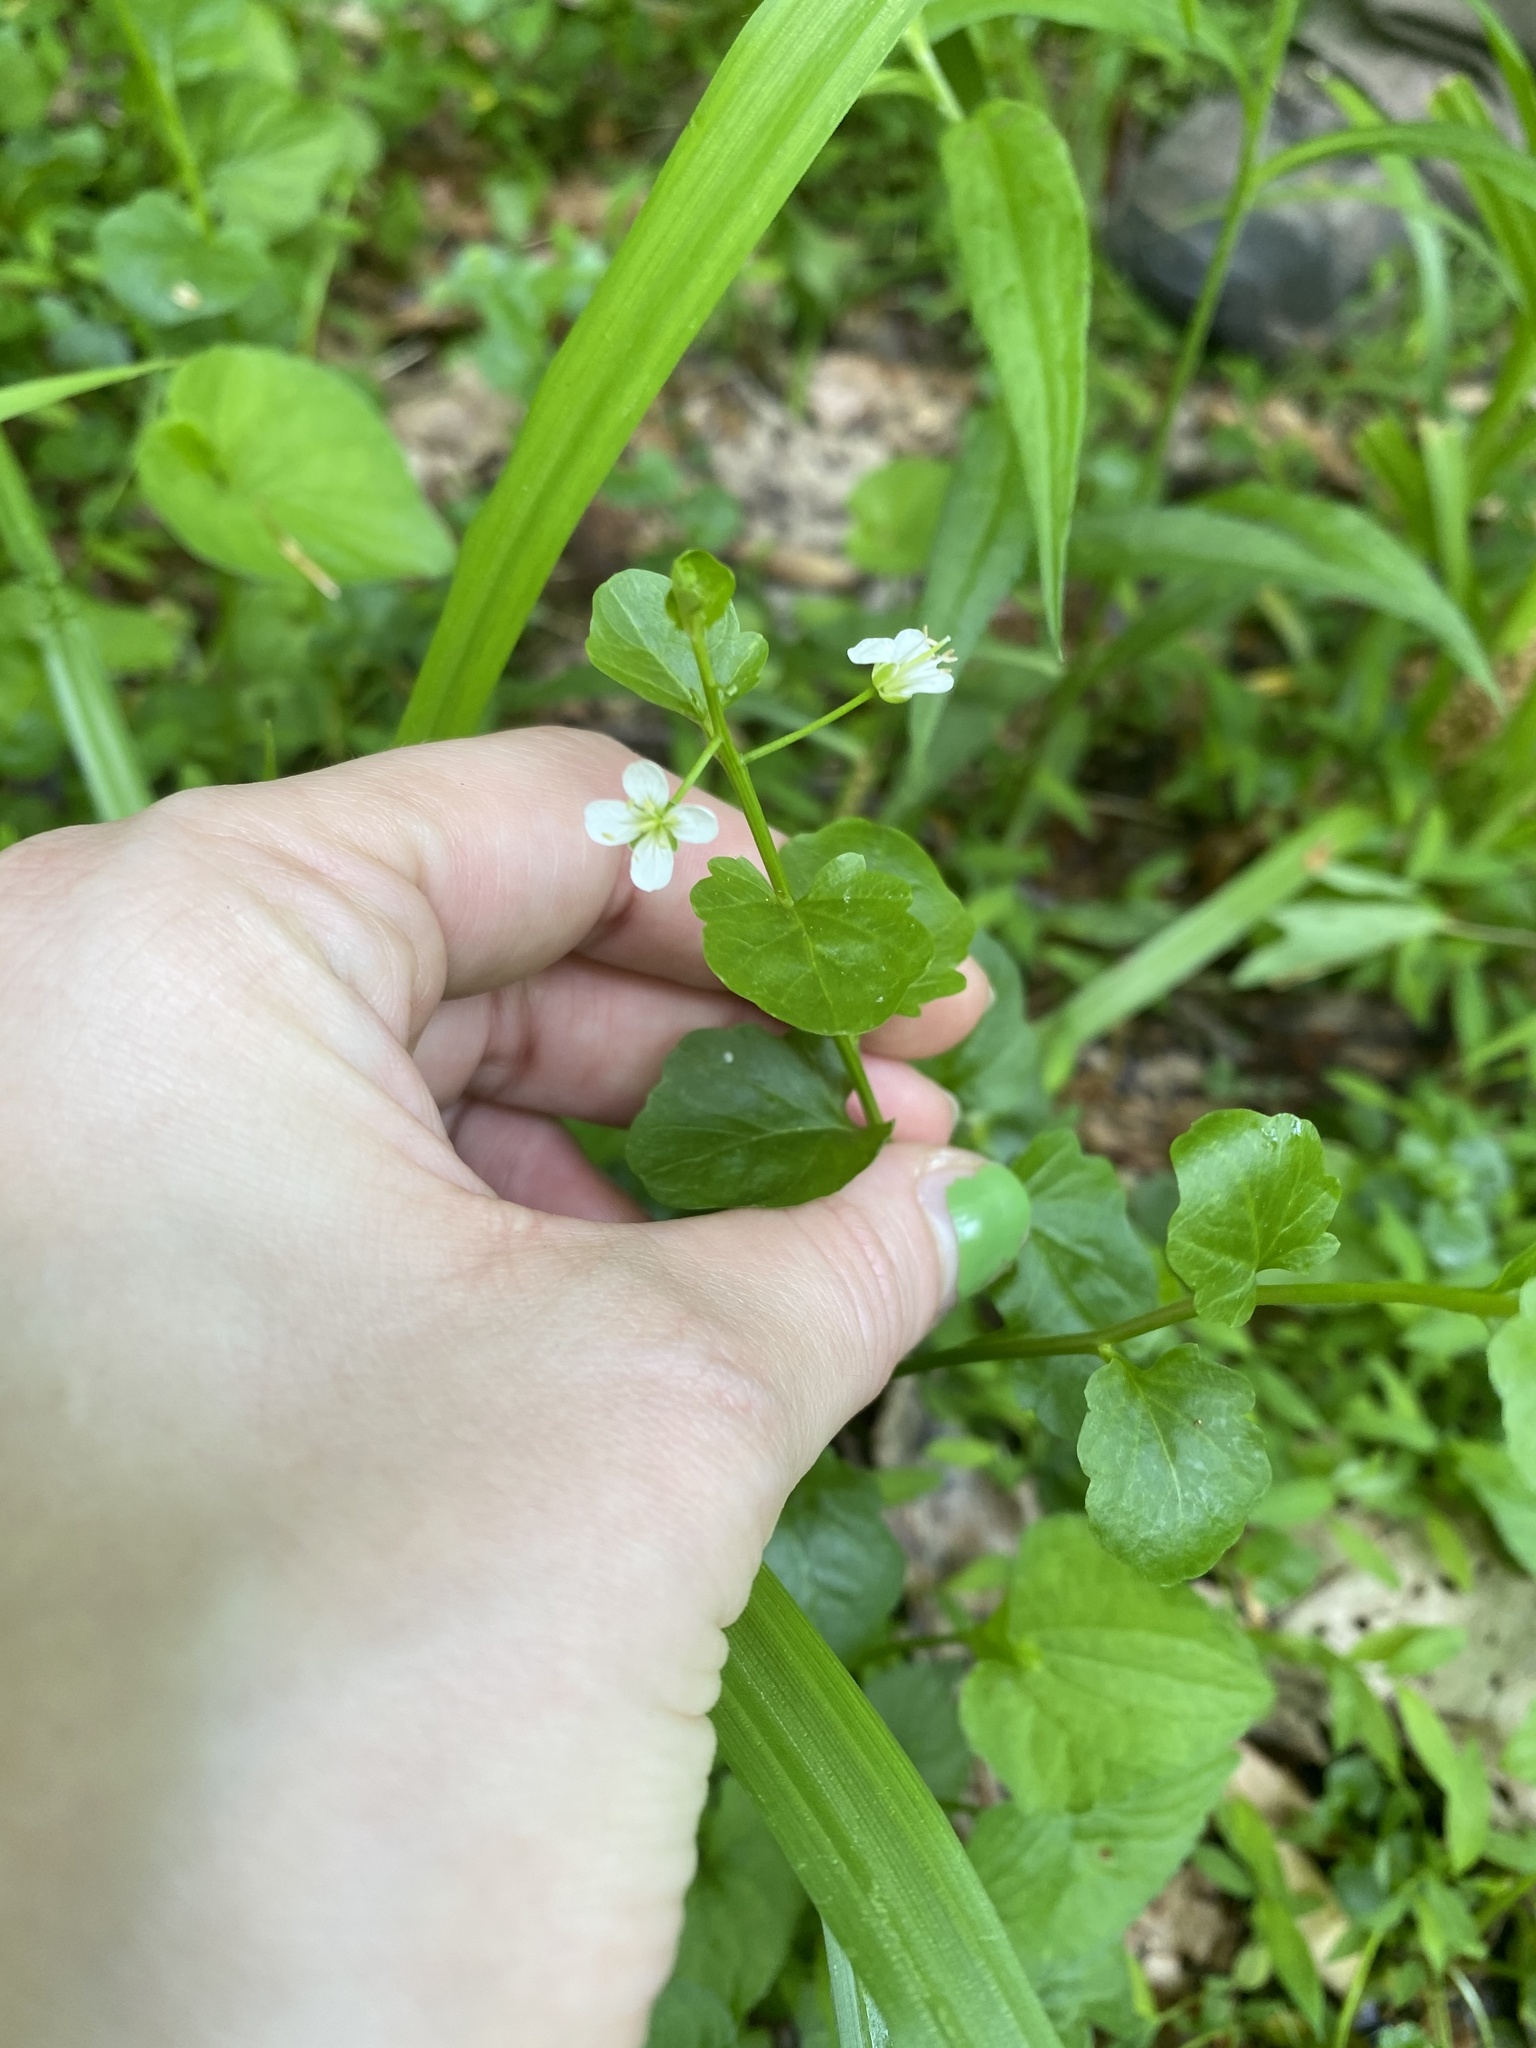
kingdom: Plantae
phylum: Tracheophyta
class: Magnoliopsida
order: Brassicales
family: Brassicaceae
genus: Cardamine
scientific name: Cardamine bulbosa
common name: Spring cress
